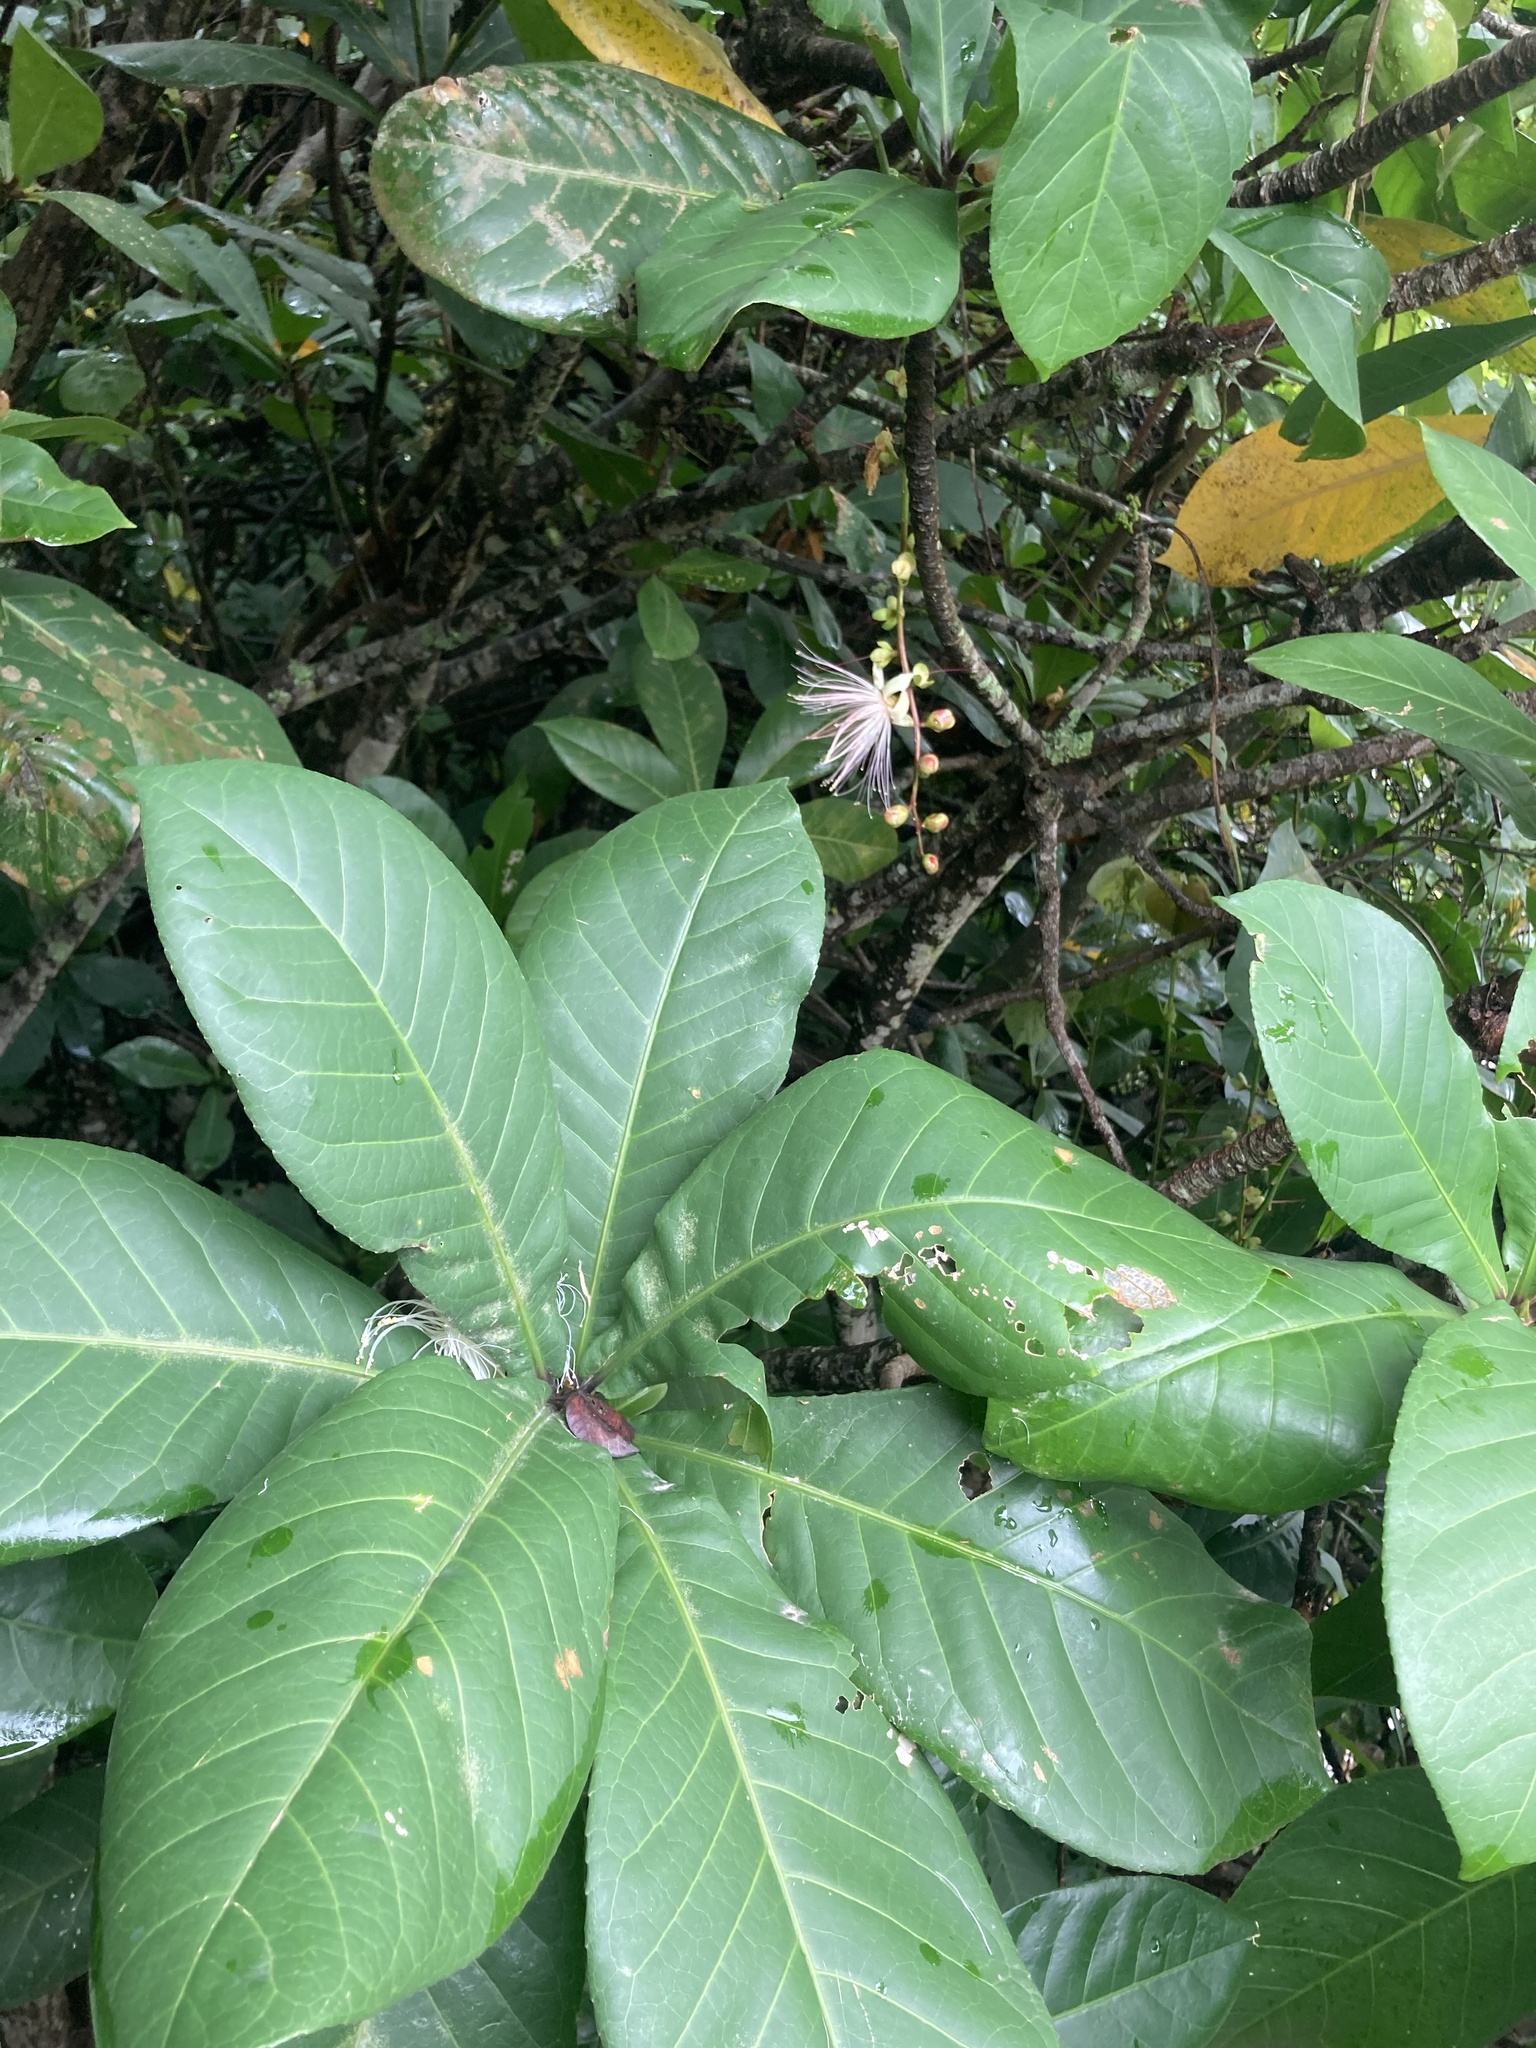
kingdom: Plantae
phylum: Tracheophyta
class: Magnoliopsida
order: Ericales
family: Lecythidaceae
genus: Barringtonia
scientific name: Barringtonia racemosa
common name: Brackwater mangrove
